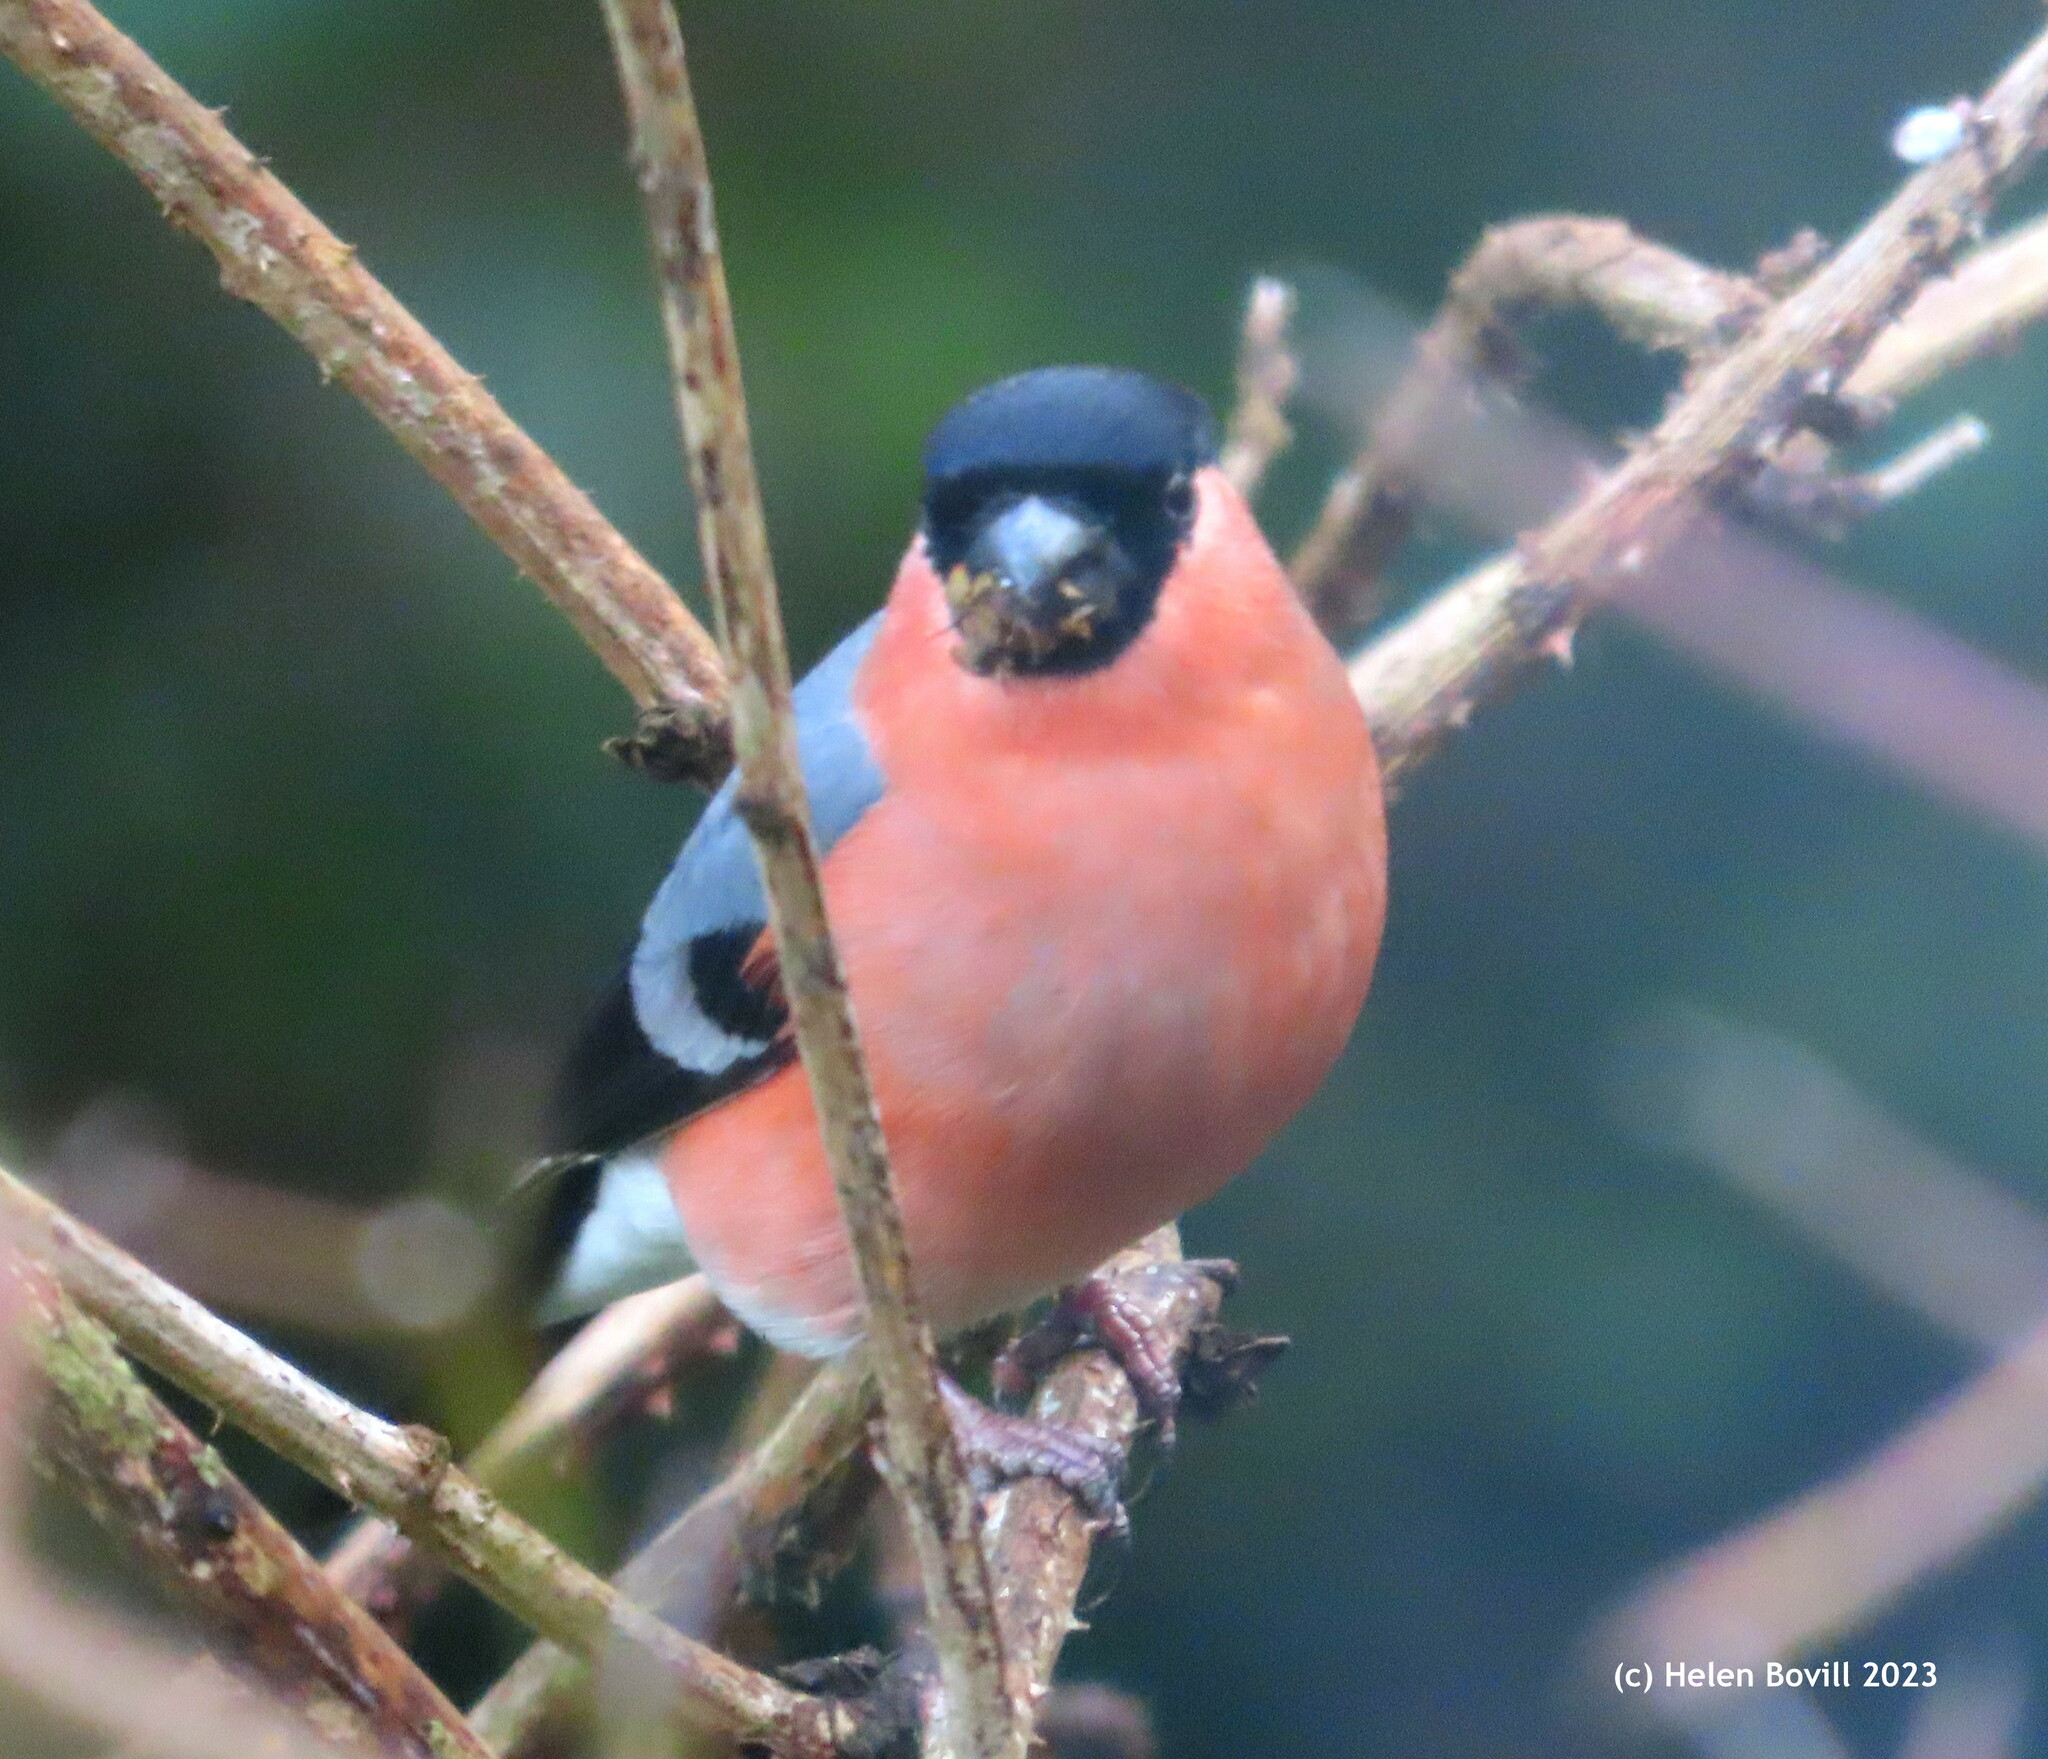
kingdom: Animalia
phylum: Chordata
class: Aves
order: Passeriformes
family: Fringillidae
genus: Pyrrhula
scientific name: Pyrrhula pyrrhula
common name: Eurasian bullfinch
